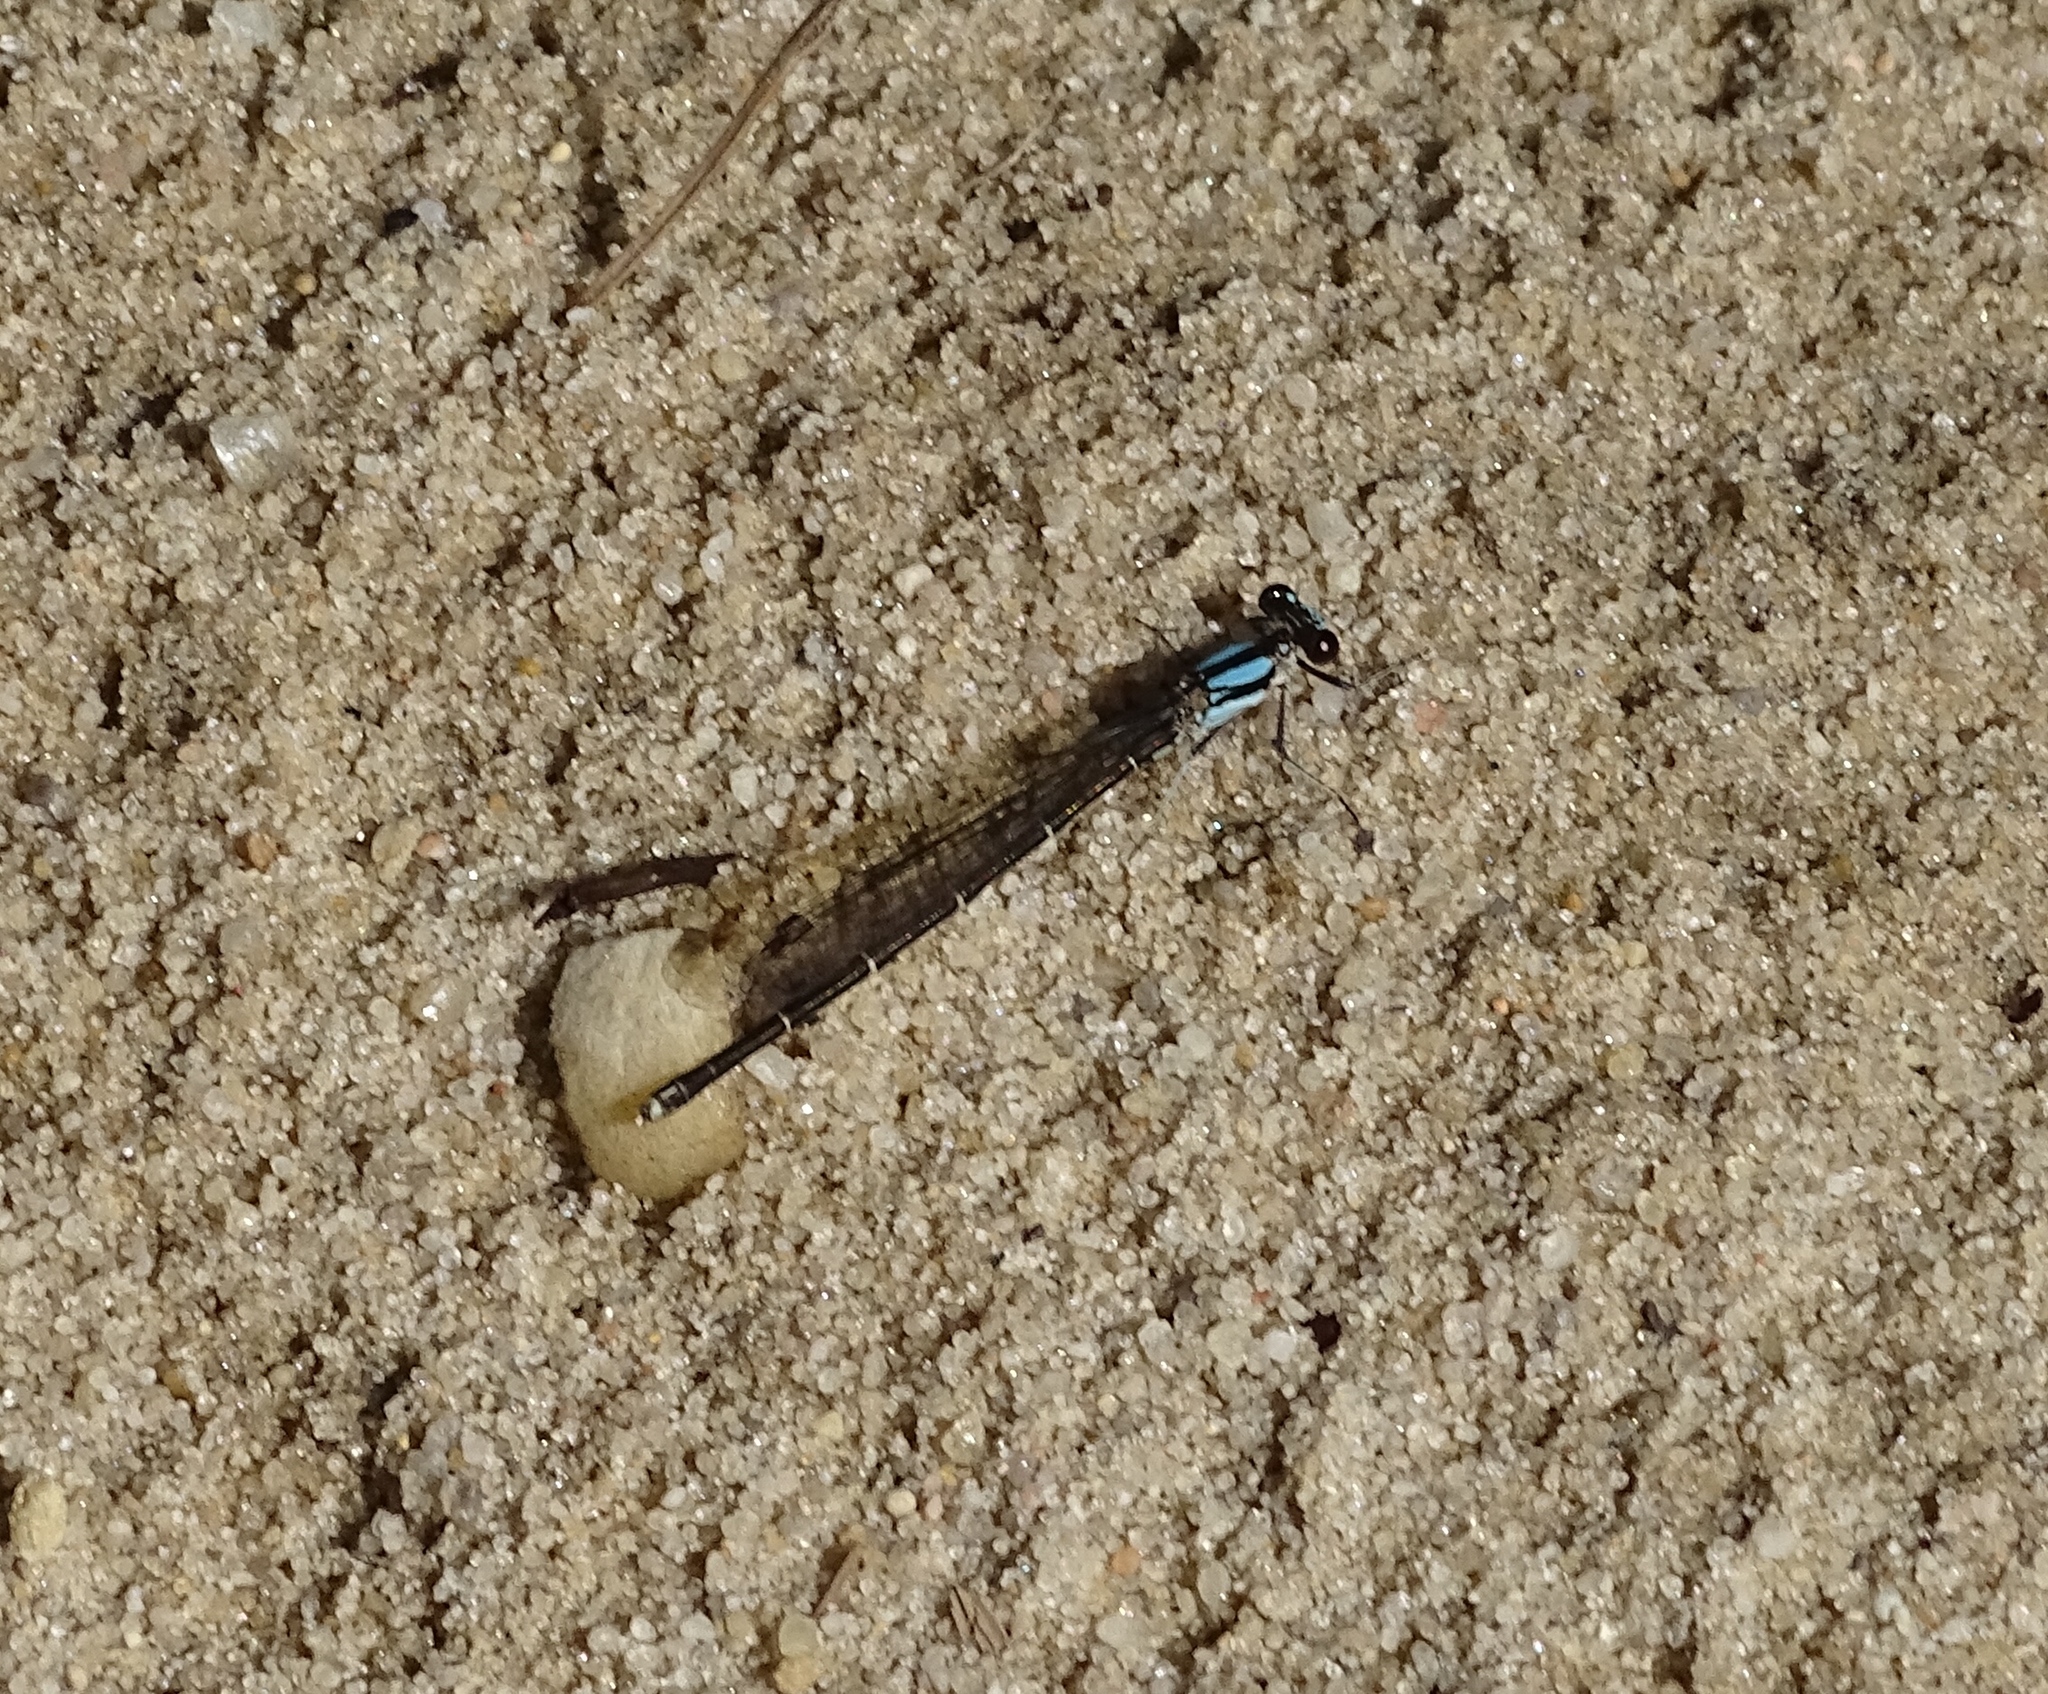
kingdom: Animalia
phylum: Arthropoda
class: Insecta
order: Odonata
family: Coenagrionidae
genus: Argia
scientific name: Argia tibialis
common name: Blue-tipped dancer
